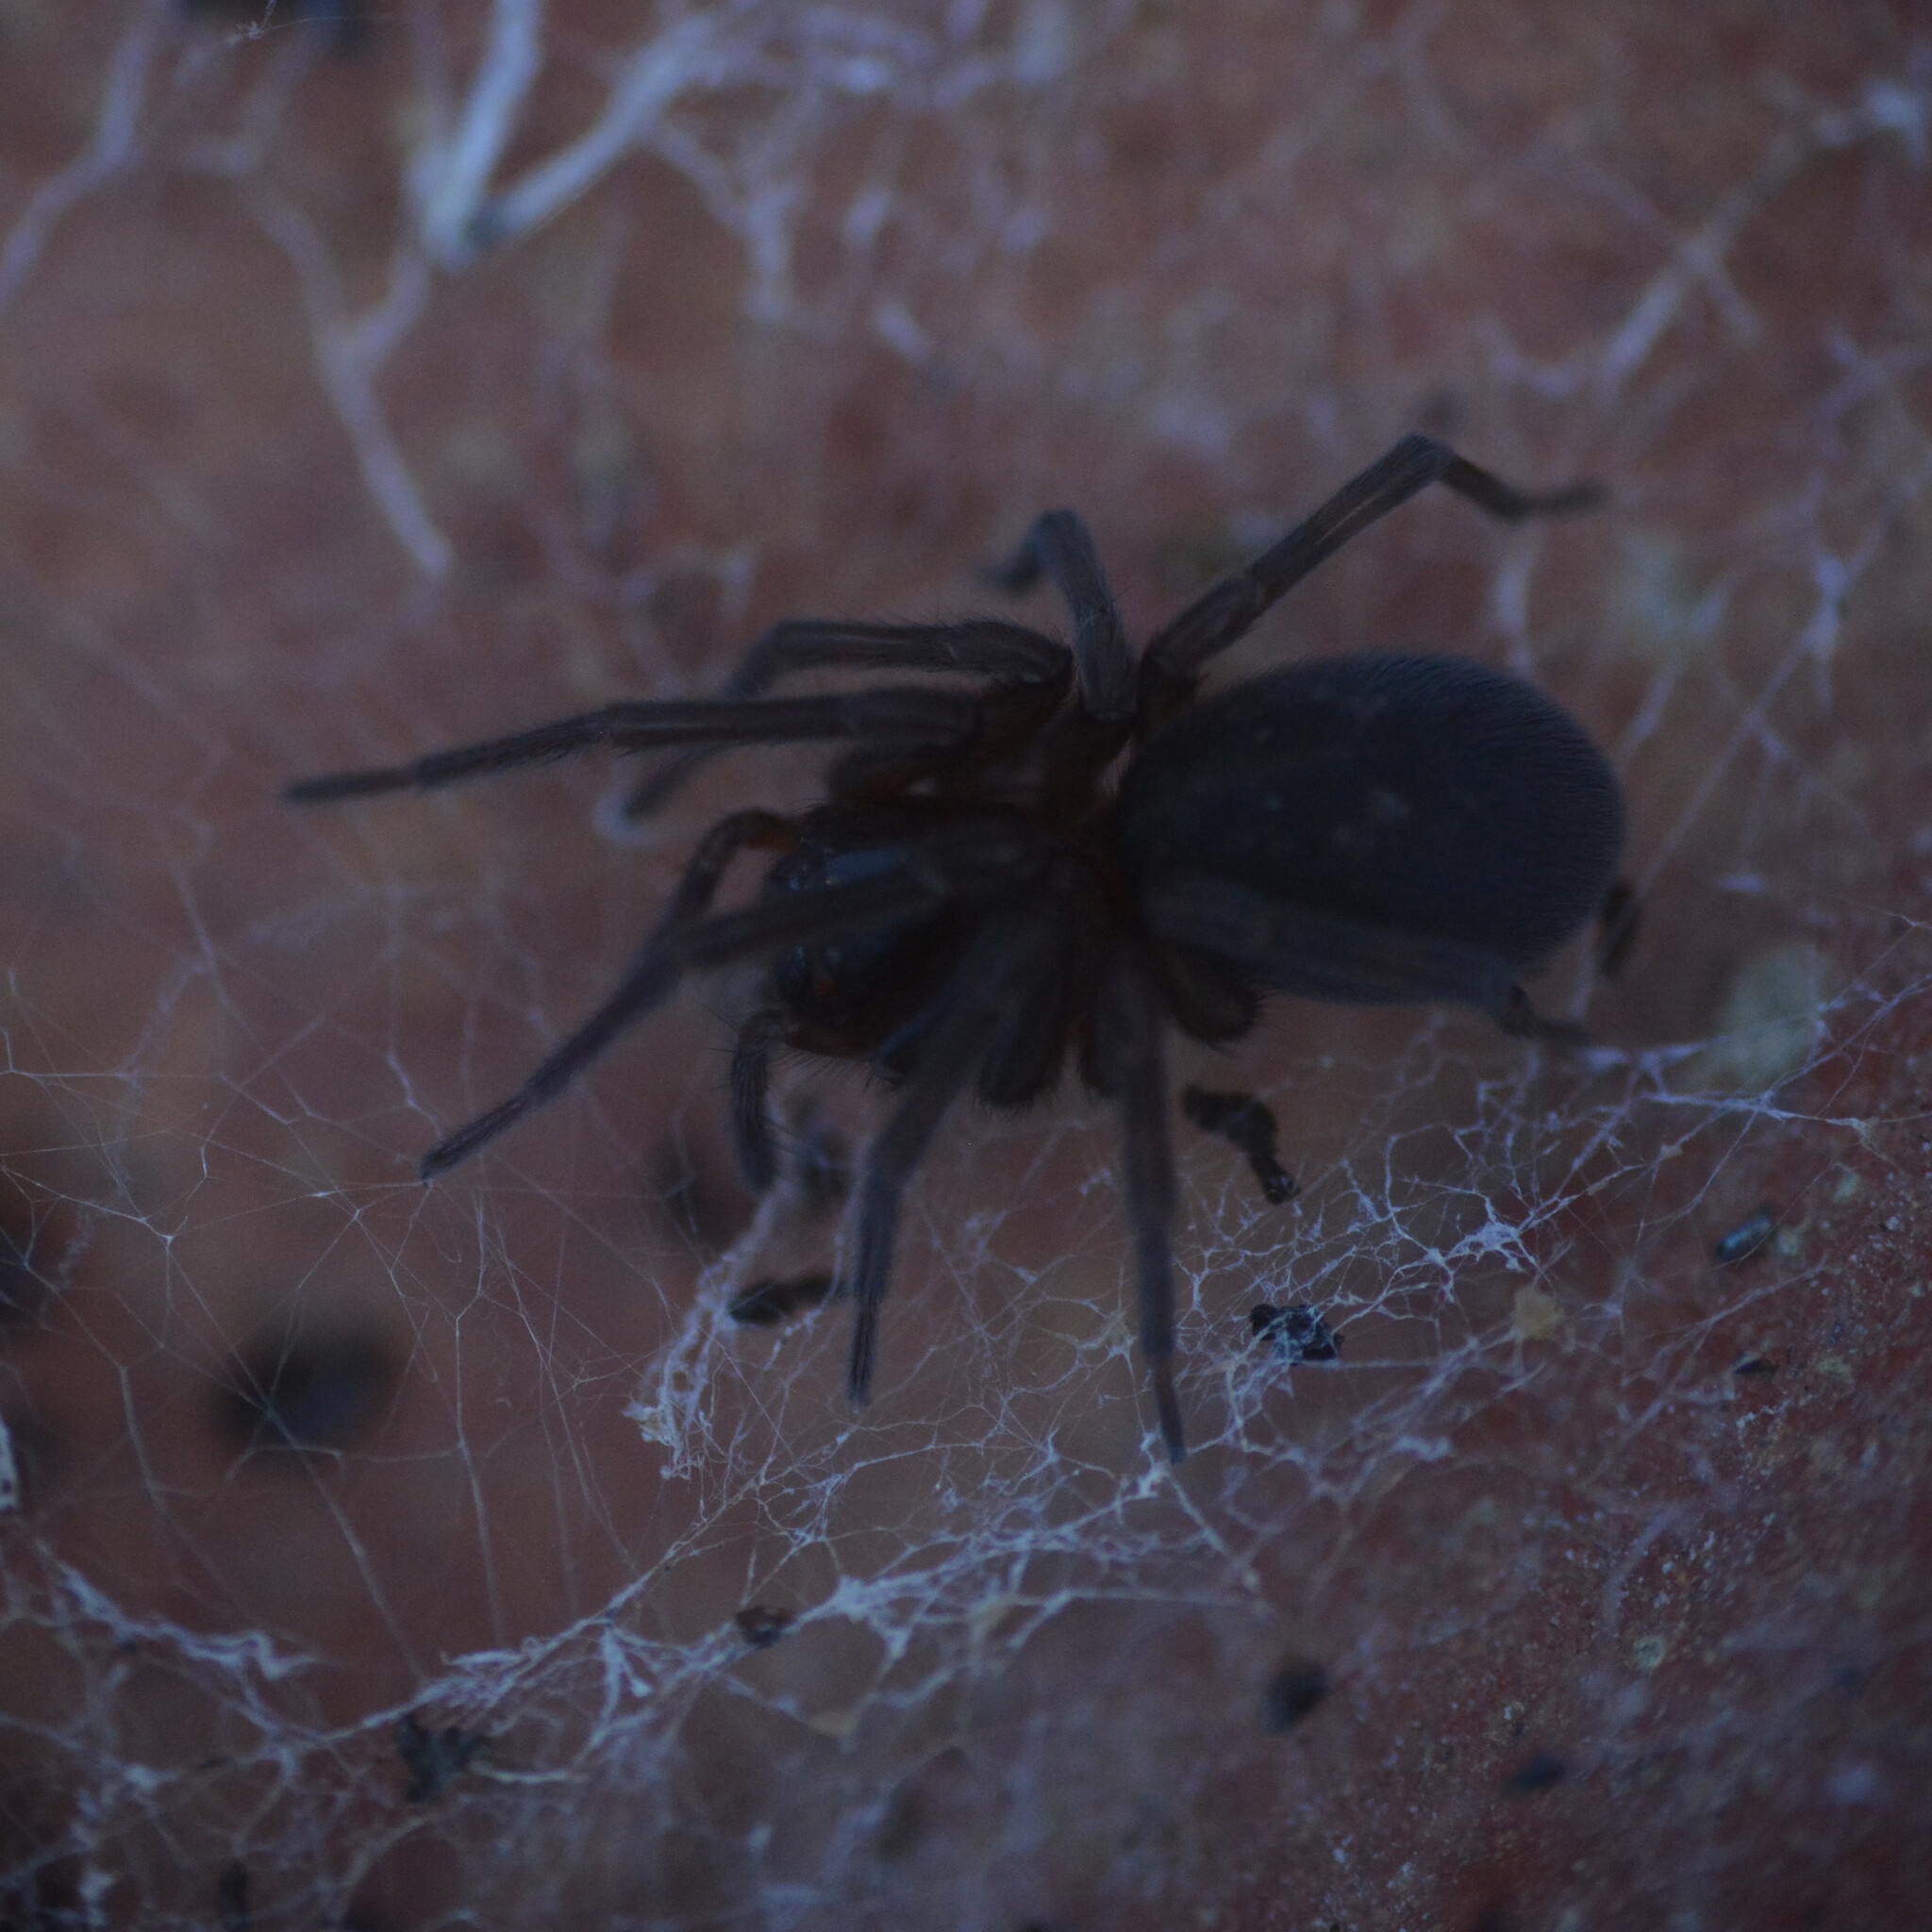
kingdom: Animalia
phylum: Arthropoda
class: Arachnida
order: Araneae
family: Amaurobiidae
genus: Amaurobius
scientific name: Amaurobius ferox
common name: Black laceweaver
